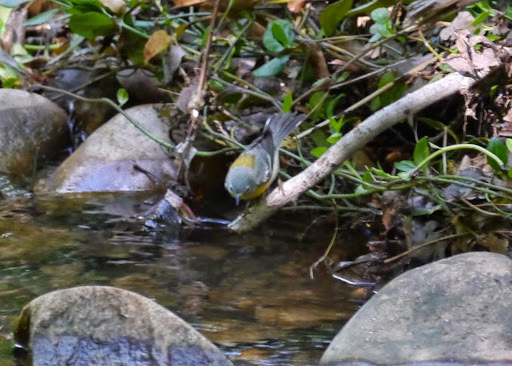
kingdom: Animalia
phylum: Chordata
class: Aves
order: Passeriformes
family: Parulidae
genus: Setophaga
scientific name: Setophaga americana
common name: Northern parula
